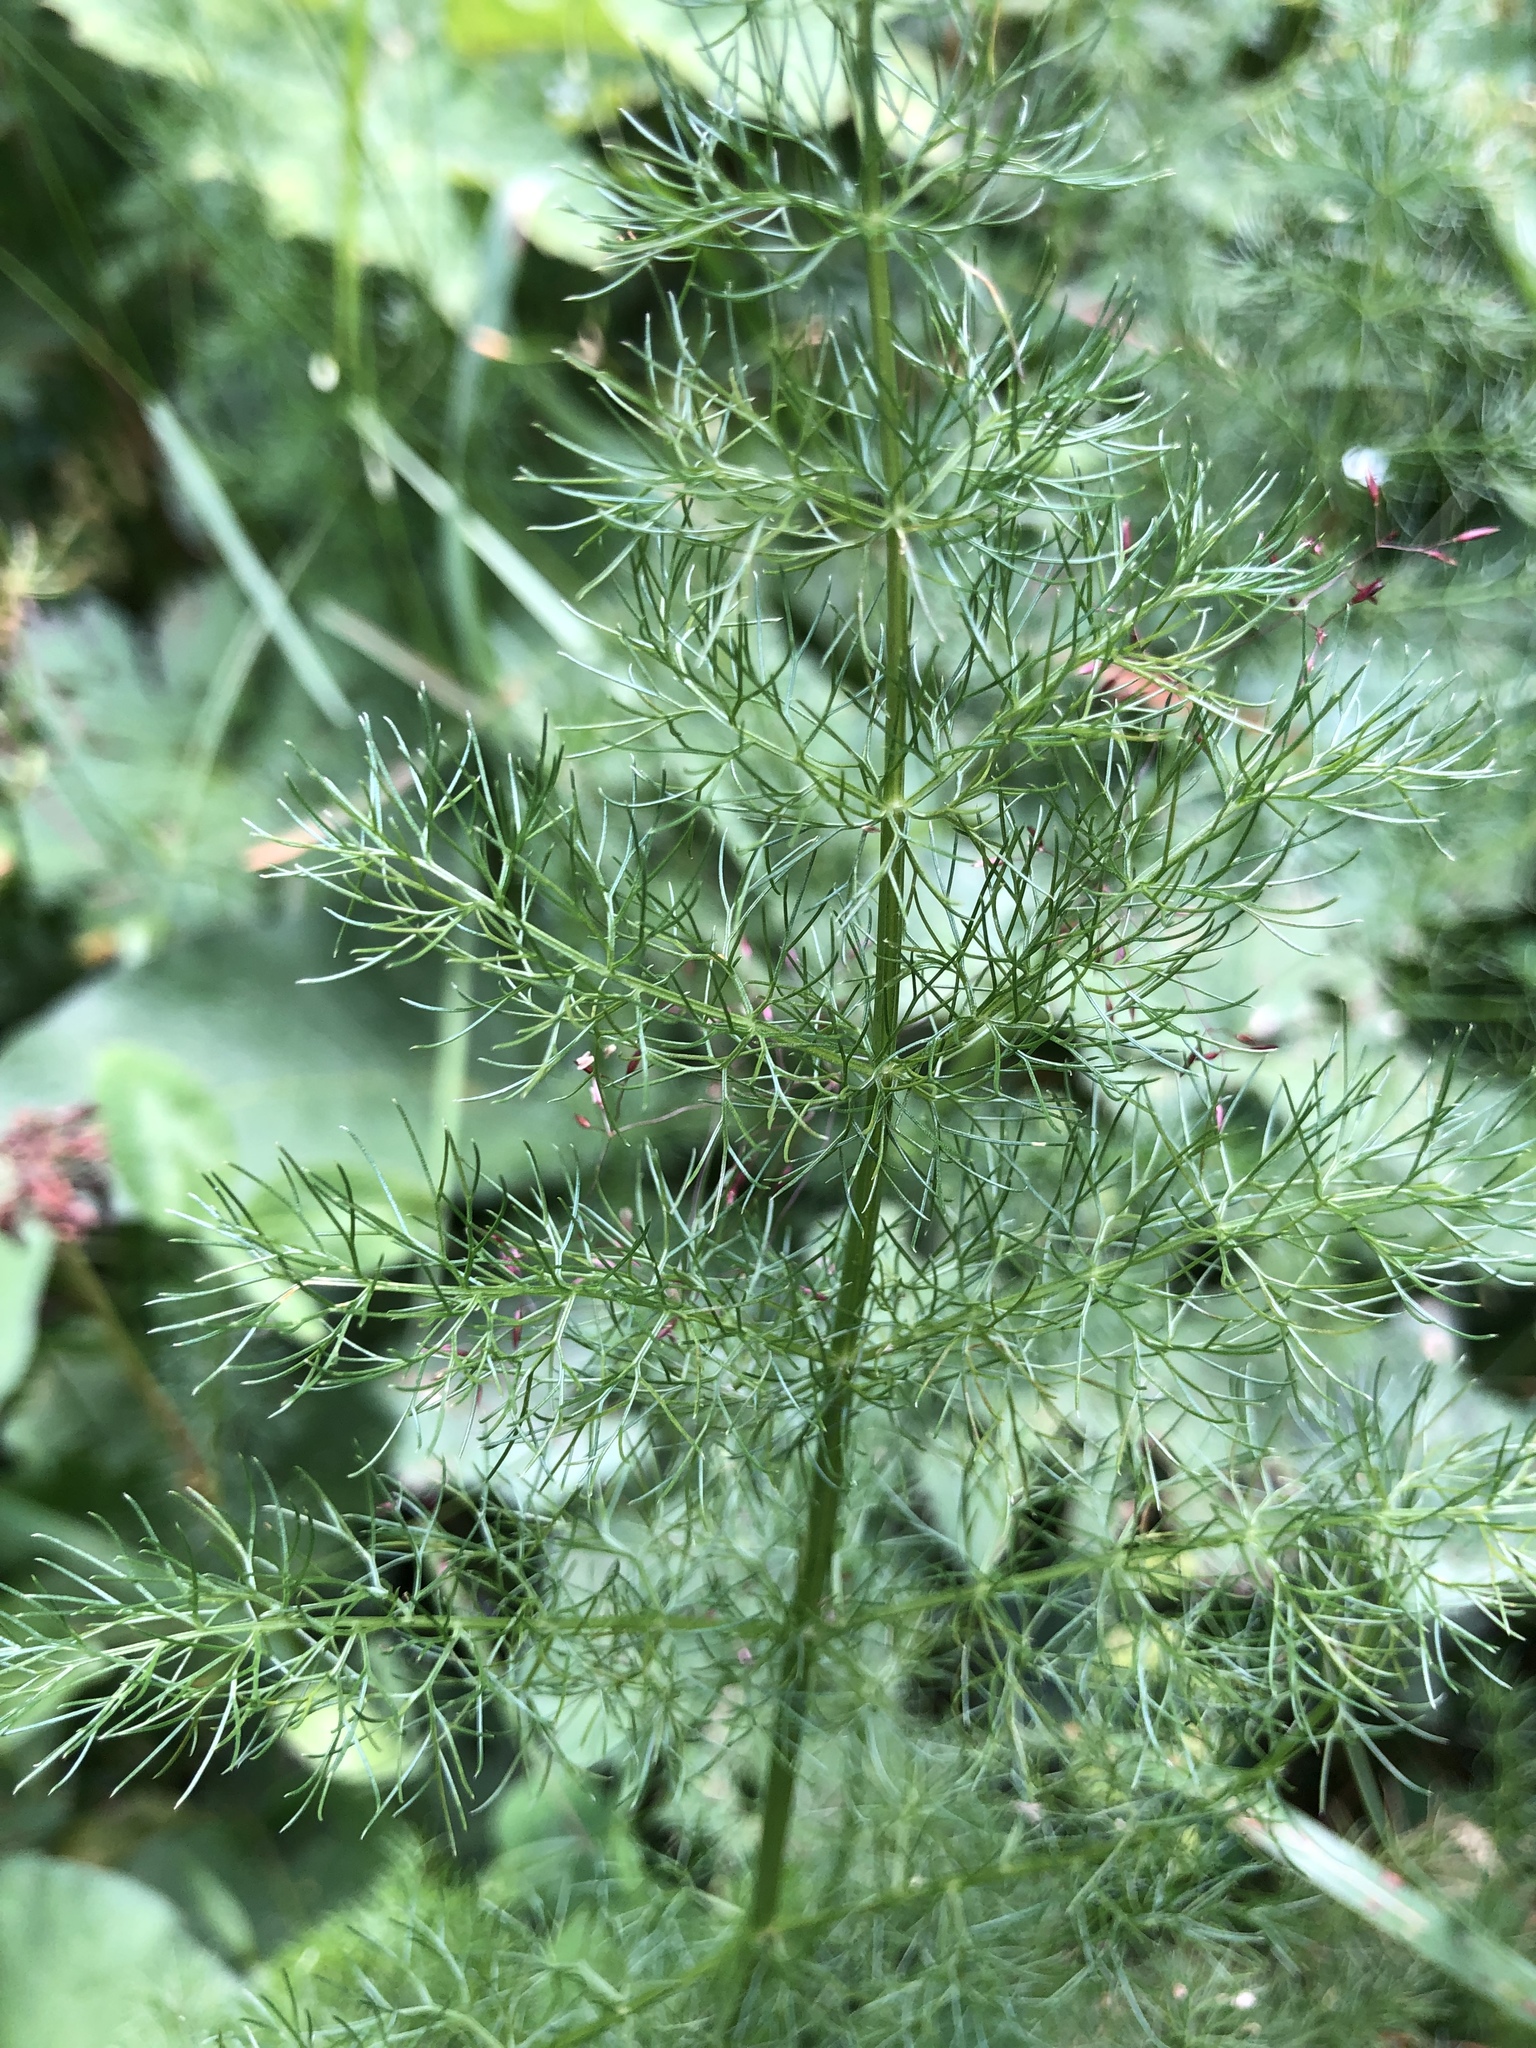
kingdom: Plantae
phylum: Tracheophyta
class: Magnoliopsida
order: Apiales
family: Apiaceae
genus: Foeniculum
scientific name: Foeniculum vulgare
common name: Fennel
